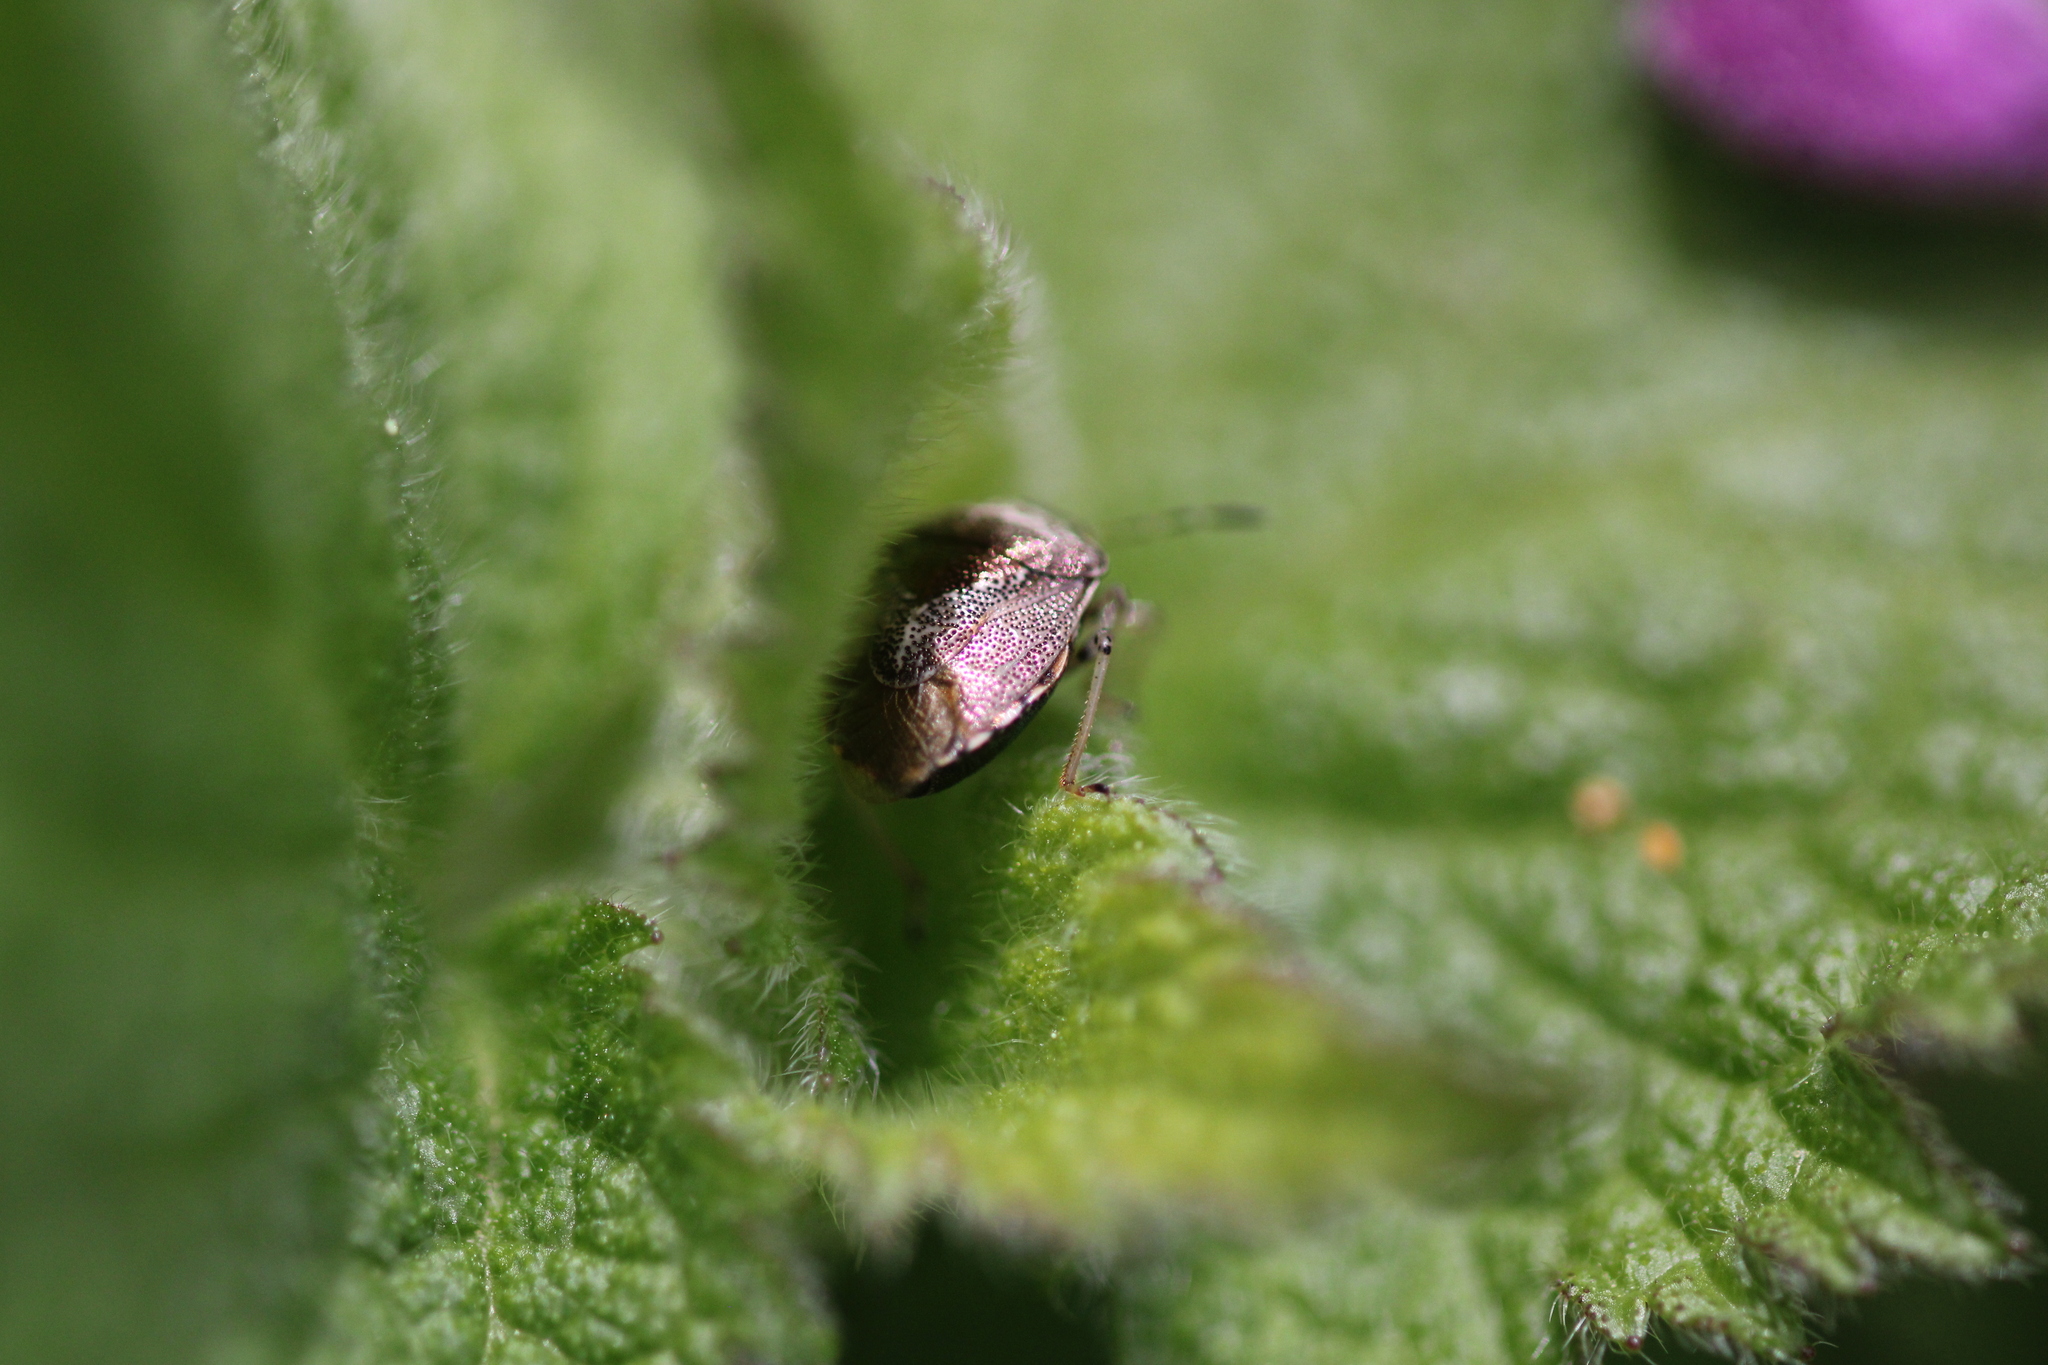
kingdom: Animalia
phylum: Arthropoda
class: Insecta
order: Hemiptera
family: Pentatomidae
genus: Eysarcoris
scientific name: Eysarcoris venustissimus
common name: Woundwort shieldbug
